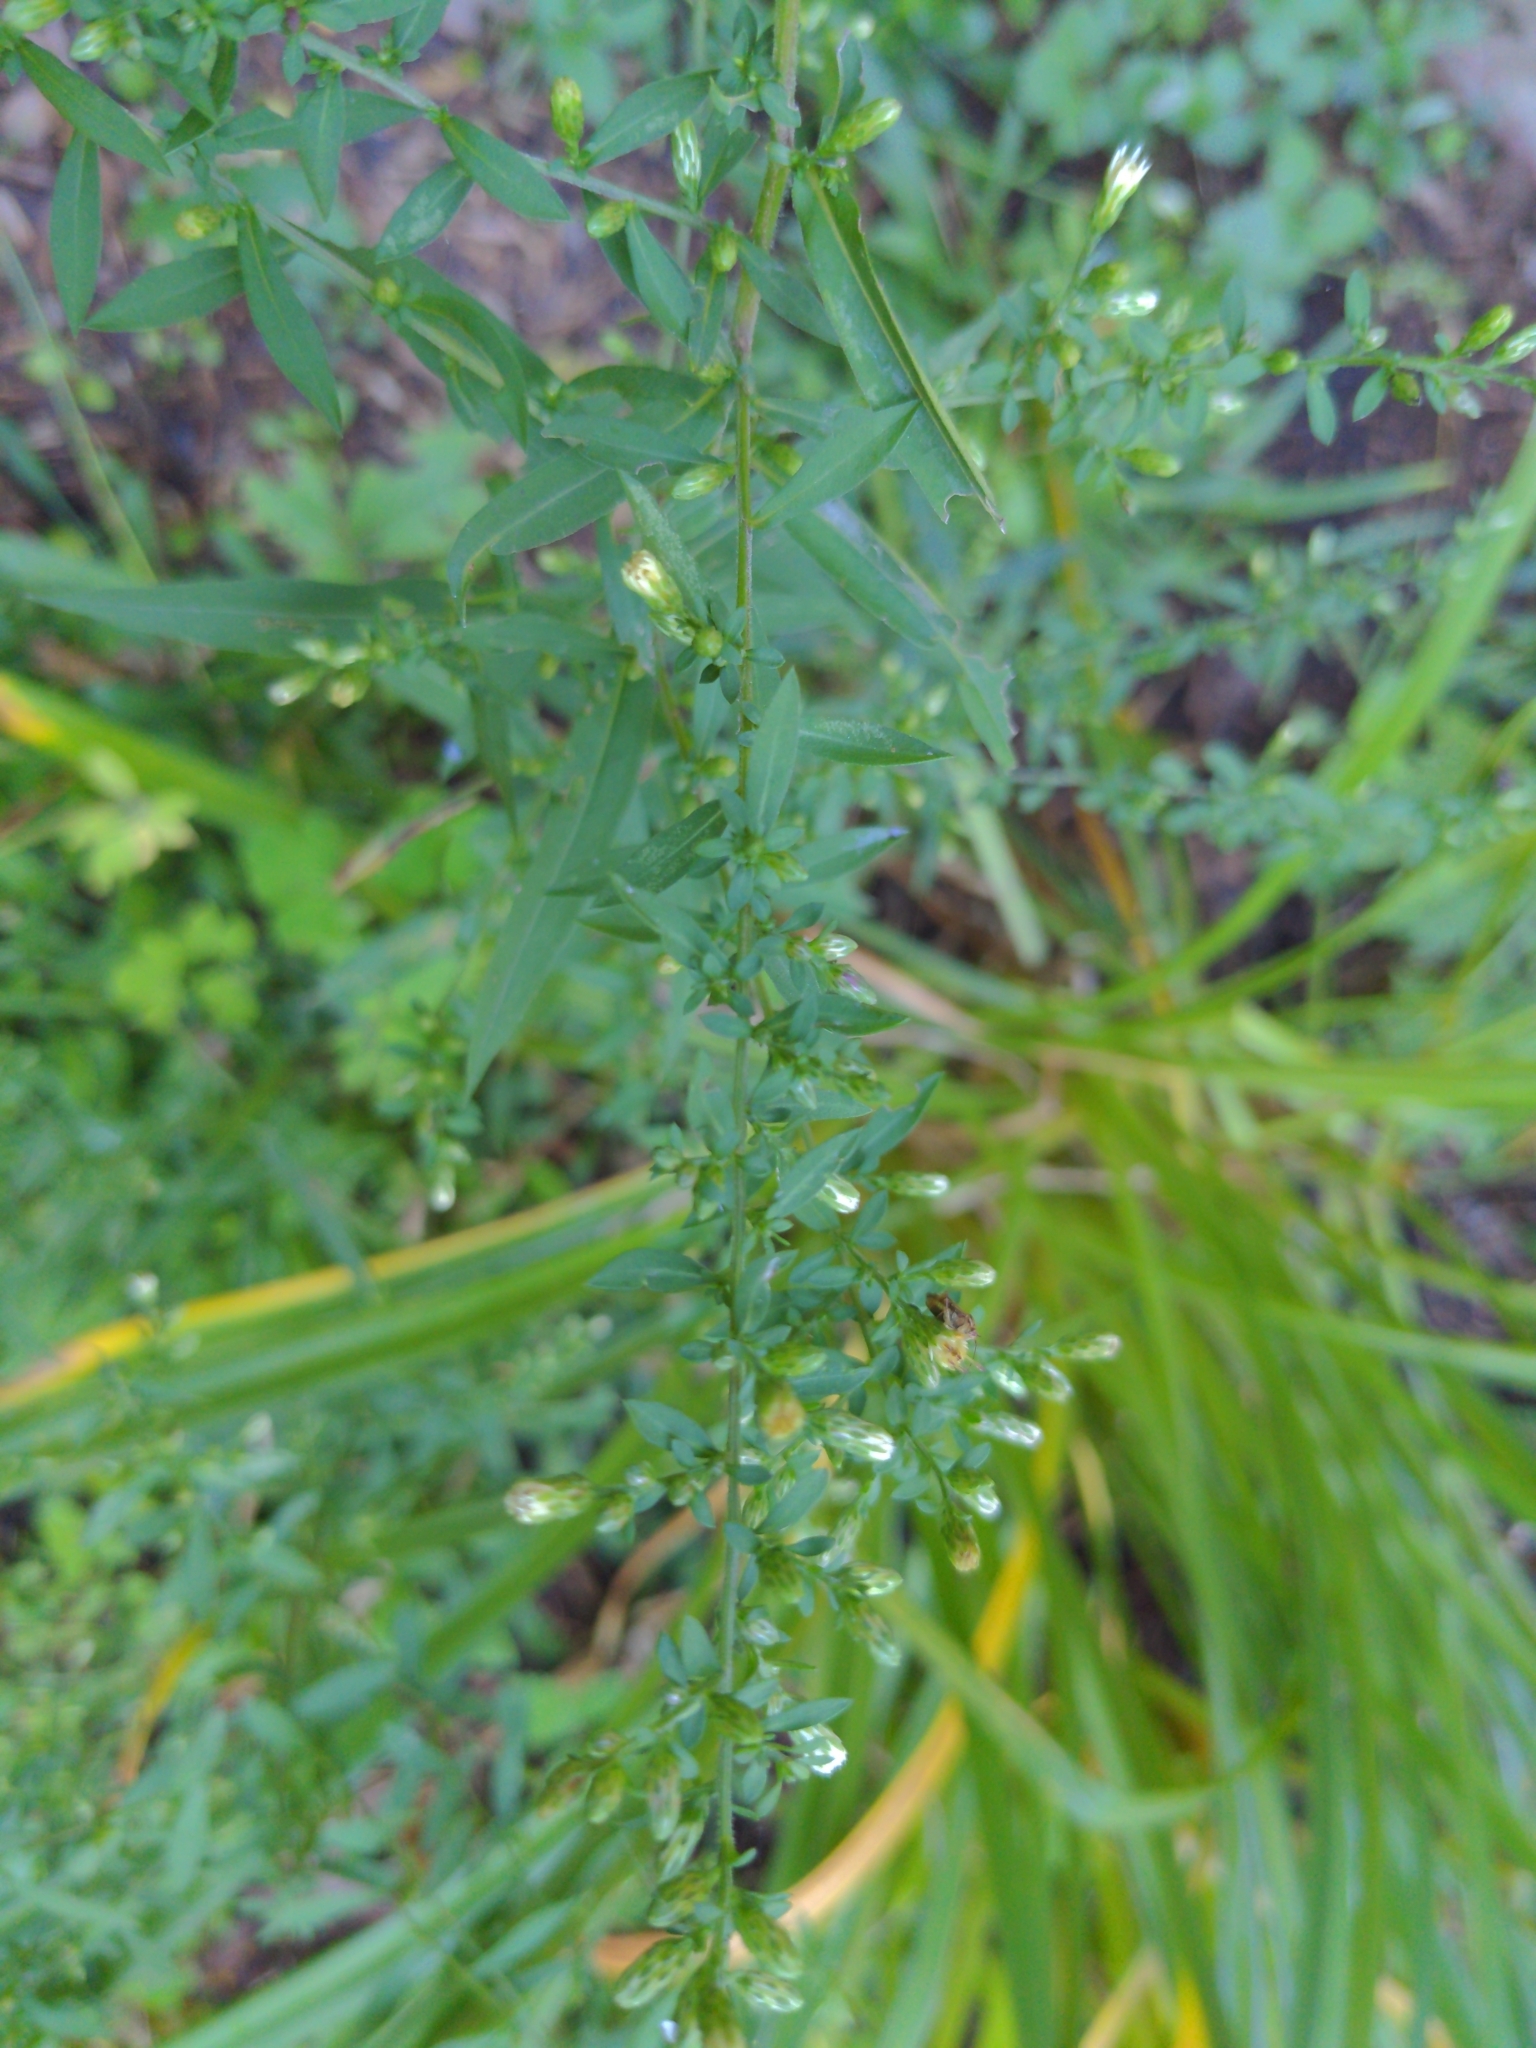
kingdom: Plantae
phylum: Tracheophyta
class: Magnoliopsida
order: Asterales
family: Asteraceae
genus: Symphyotrichum
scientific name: Symphyotrichum lateriflorum
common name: Calico aster
